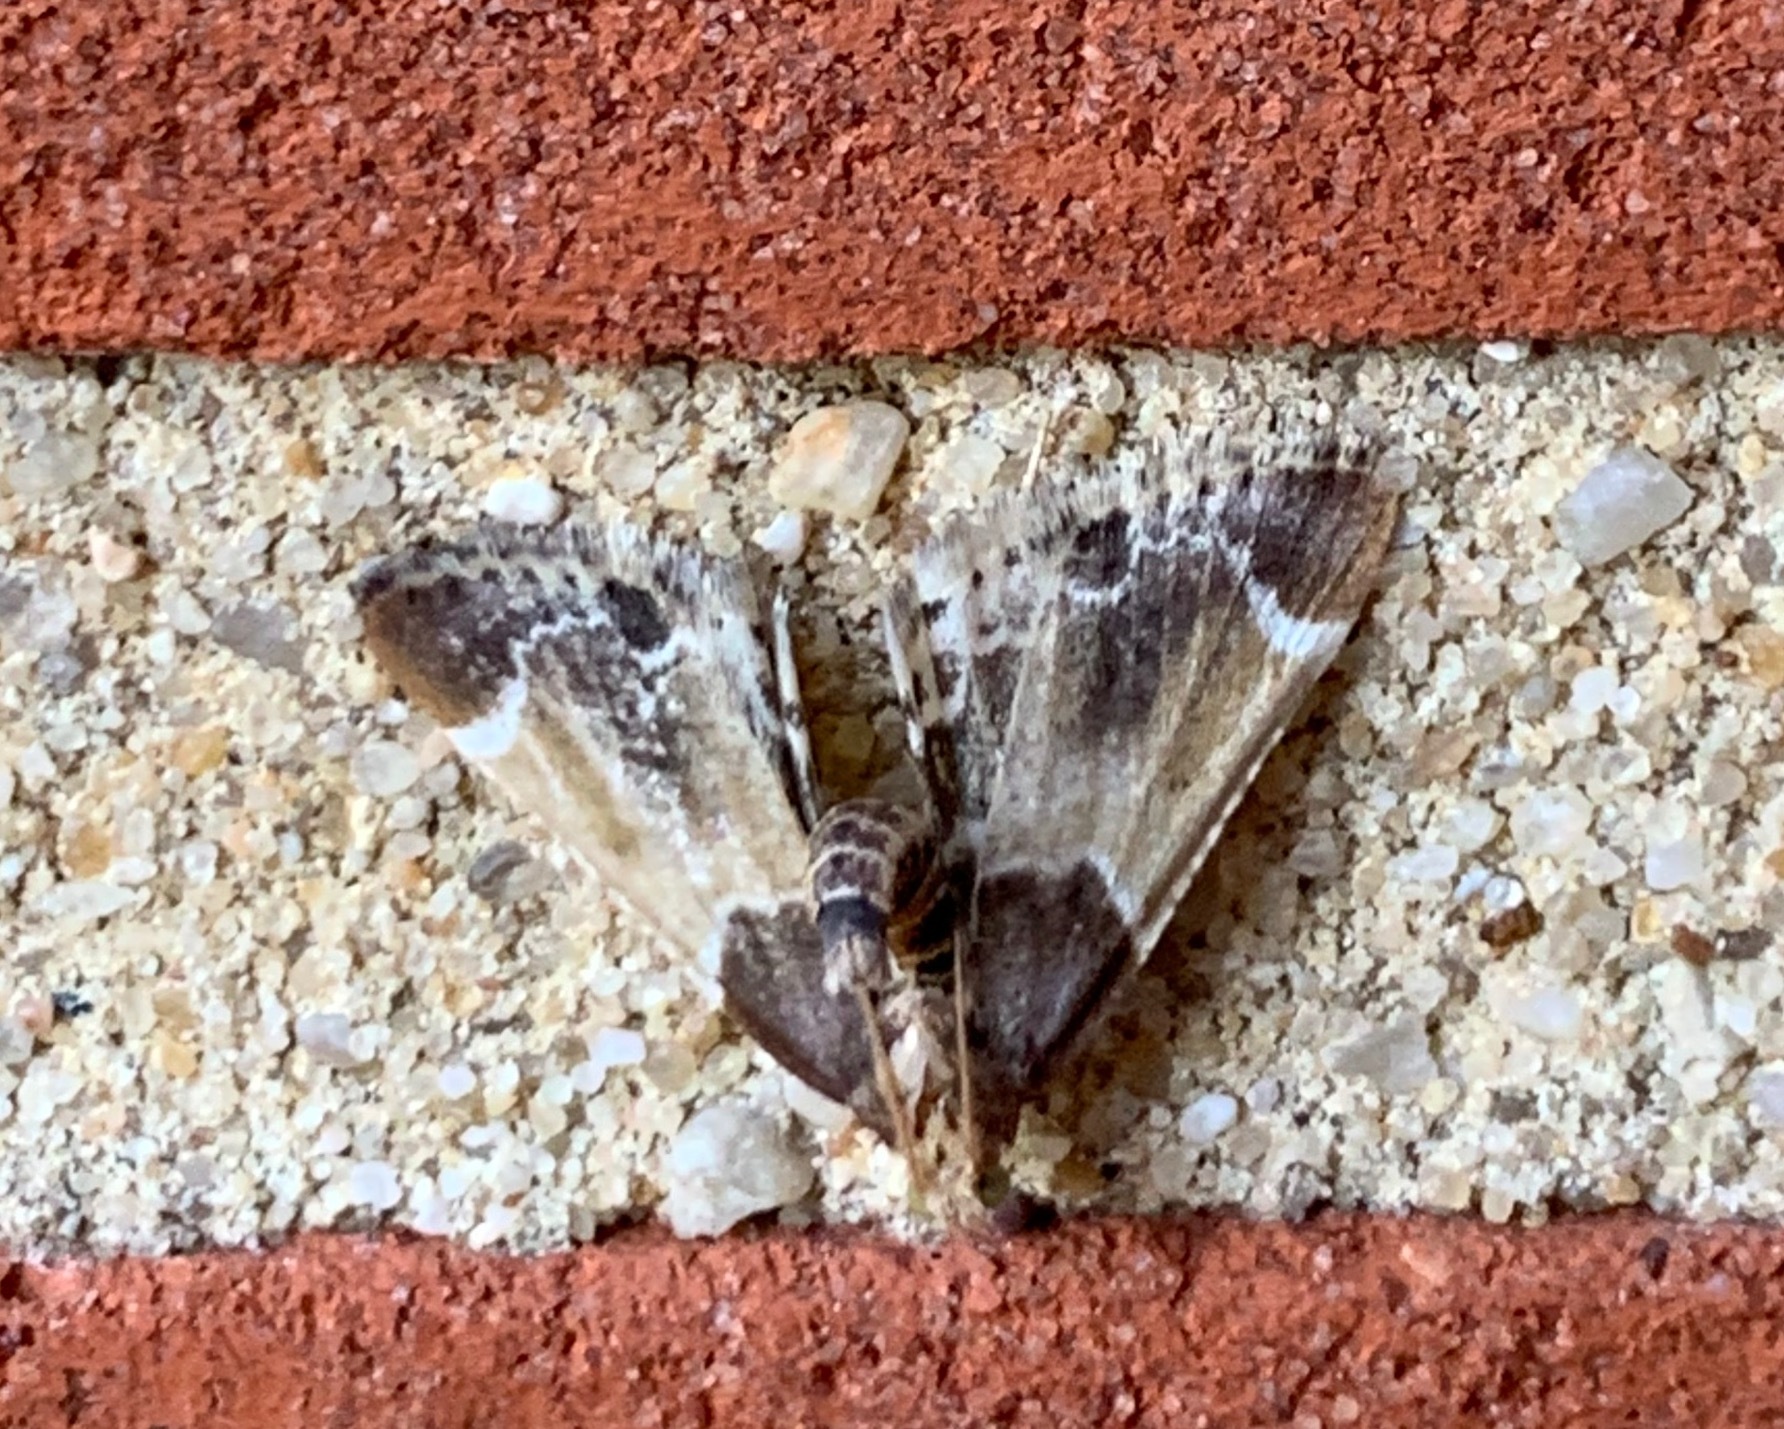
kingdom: Animalia
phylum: Arthropoda
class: Insecta
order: Lepidoptera
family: Pyralidae
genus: Pyralis
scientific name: Pyralis farinalis
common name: Meal moth
